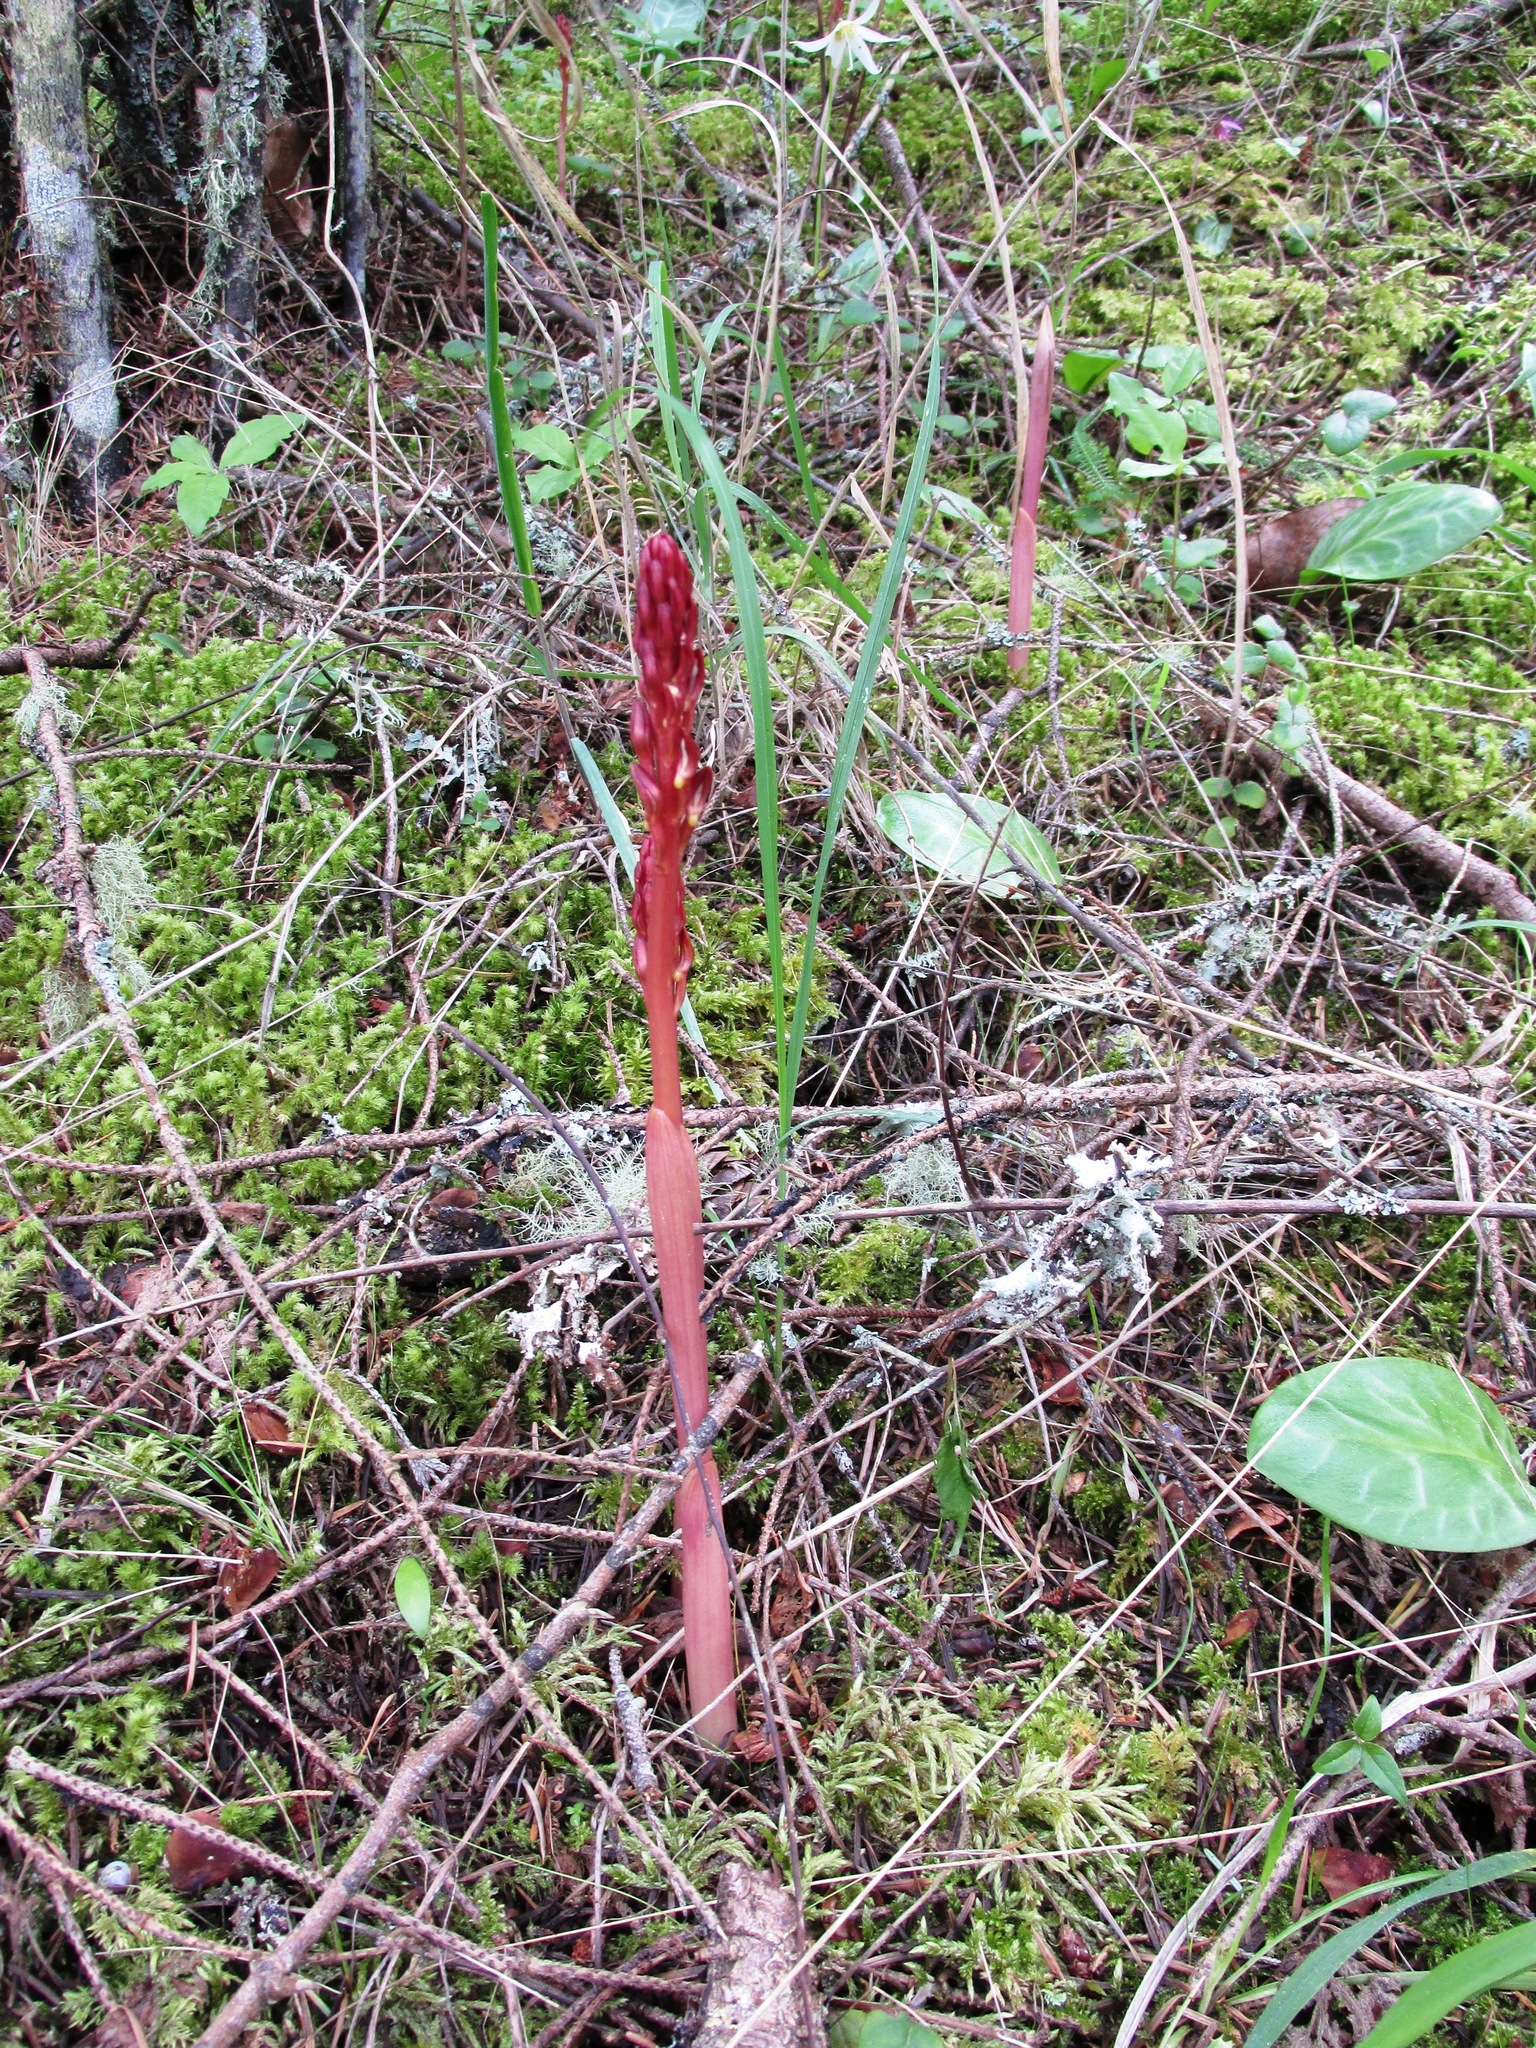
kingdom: Plantae
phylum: Tracheophyta
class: Liliopsida
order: Asparagales
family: Orchidaceae
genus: Corallorhiza
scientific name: Corallorhiza maculata
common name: Spotted coralroot
